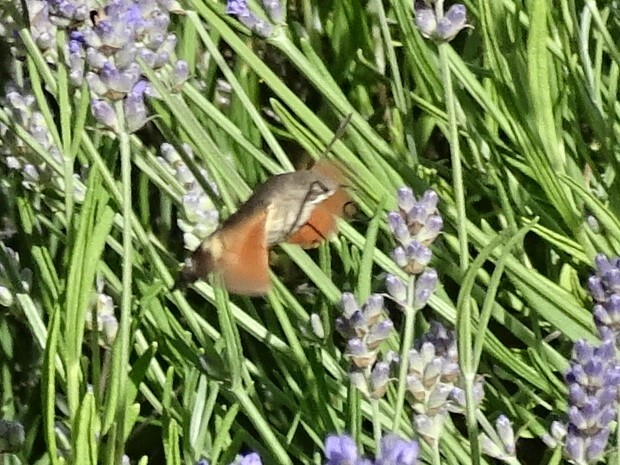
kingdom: Animalia
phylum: Arthropoda
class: Insecta
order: Lepidoptera
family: Sphingidae
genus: Macroglossum
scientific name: Macroglossum stellatarum
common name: Humming-bird hawk-moth
